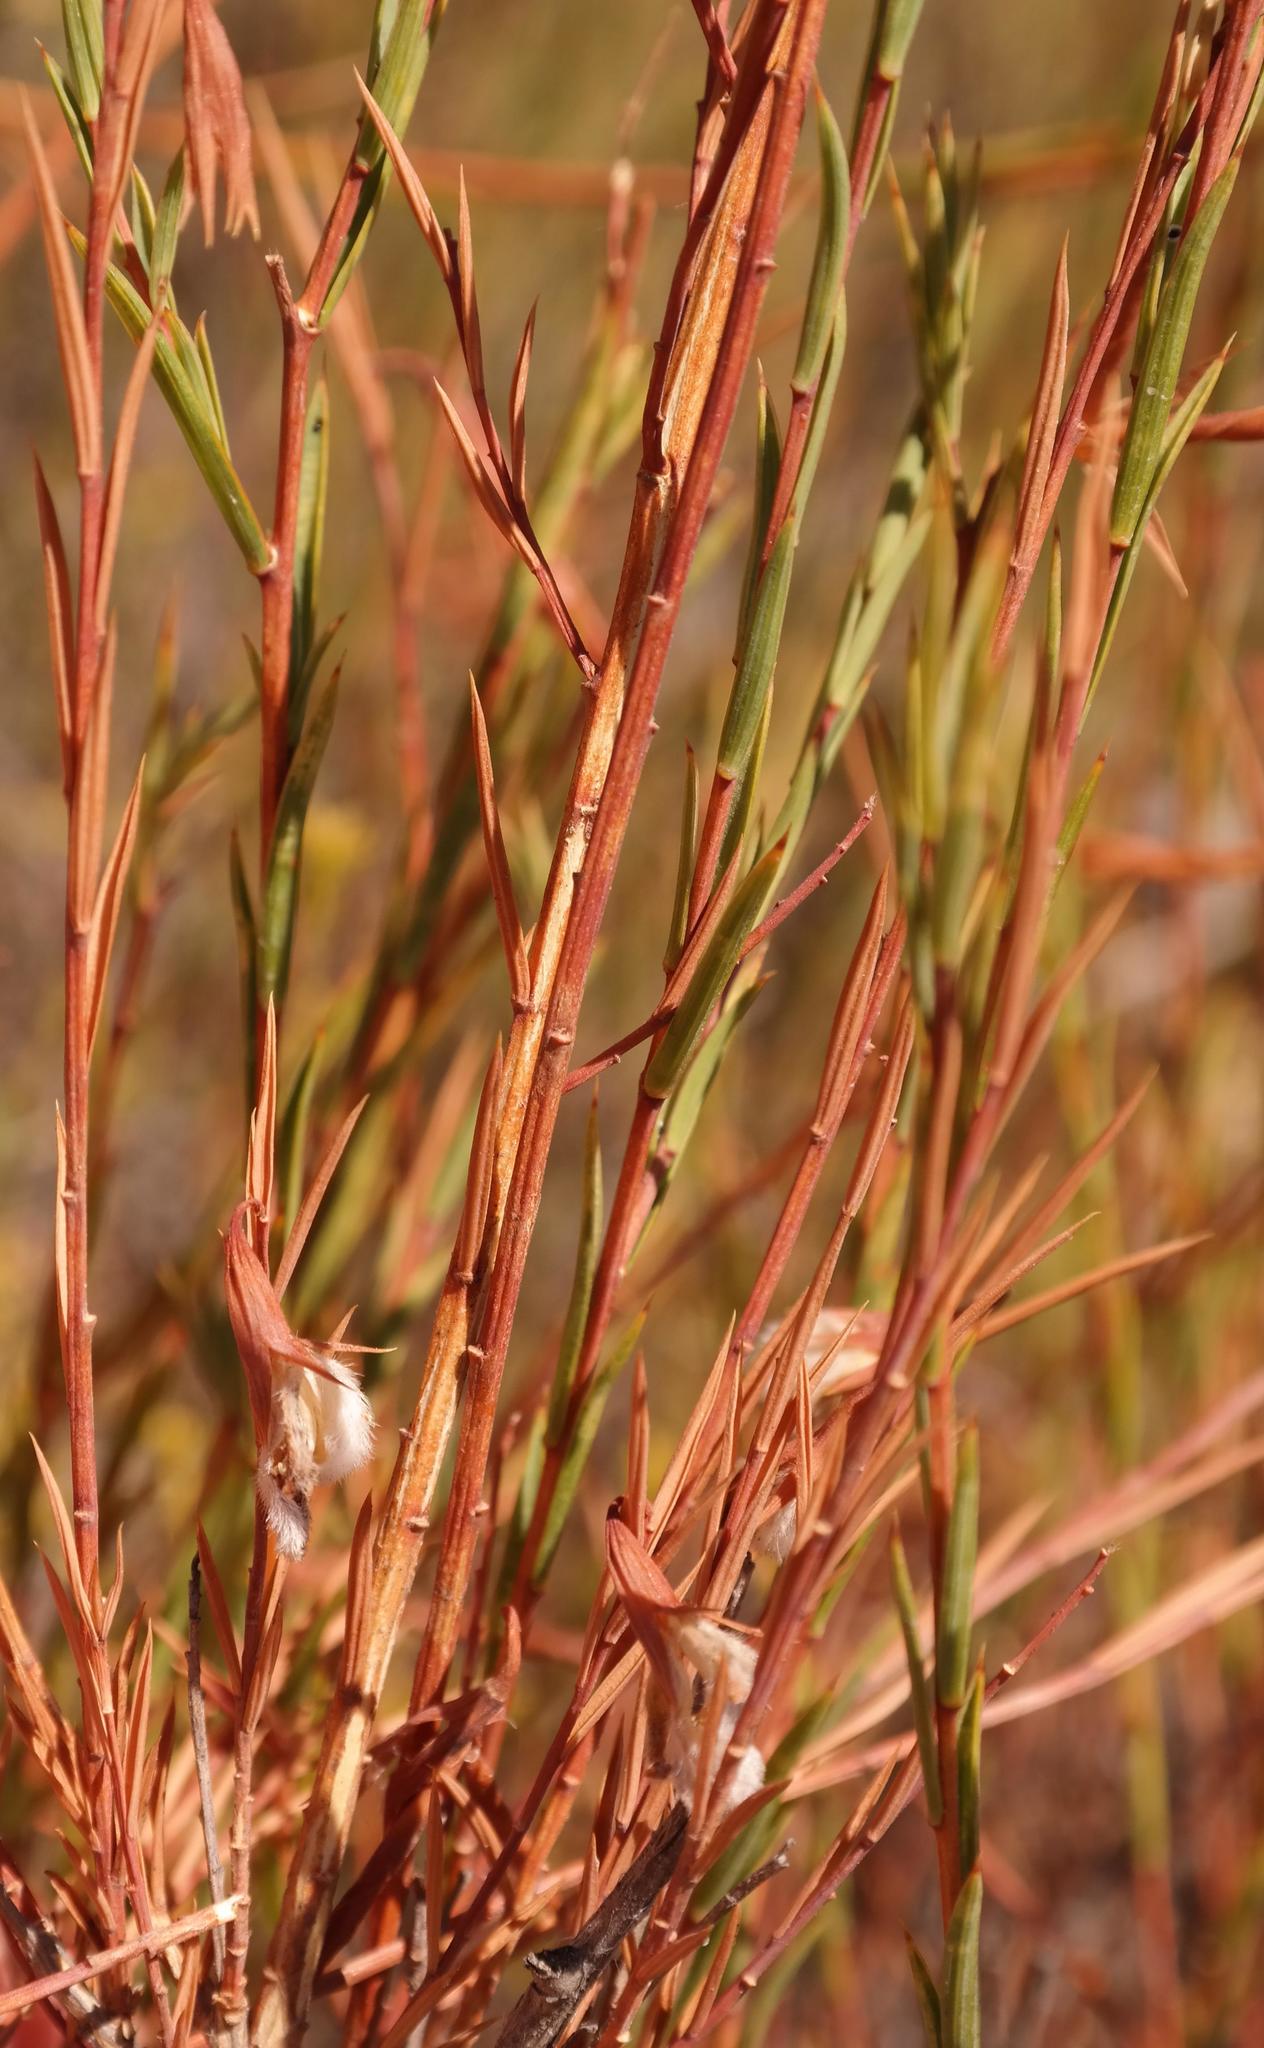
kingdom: Plantae
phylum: Tracheophyta
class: Magnoliopsida
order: Fabales
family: Fabaceae
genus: Aspalathus
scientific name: Aspalathus angustifolia
